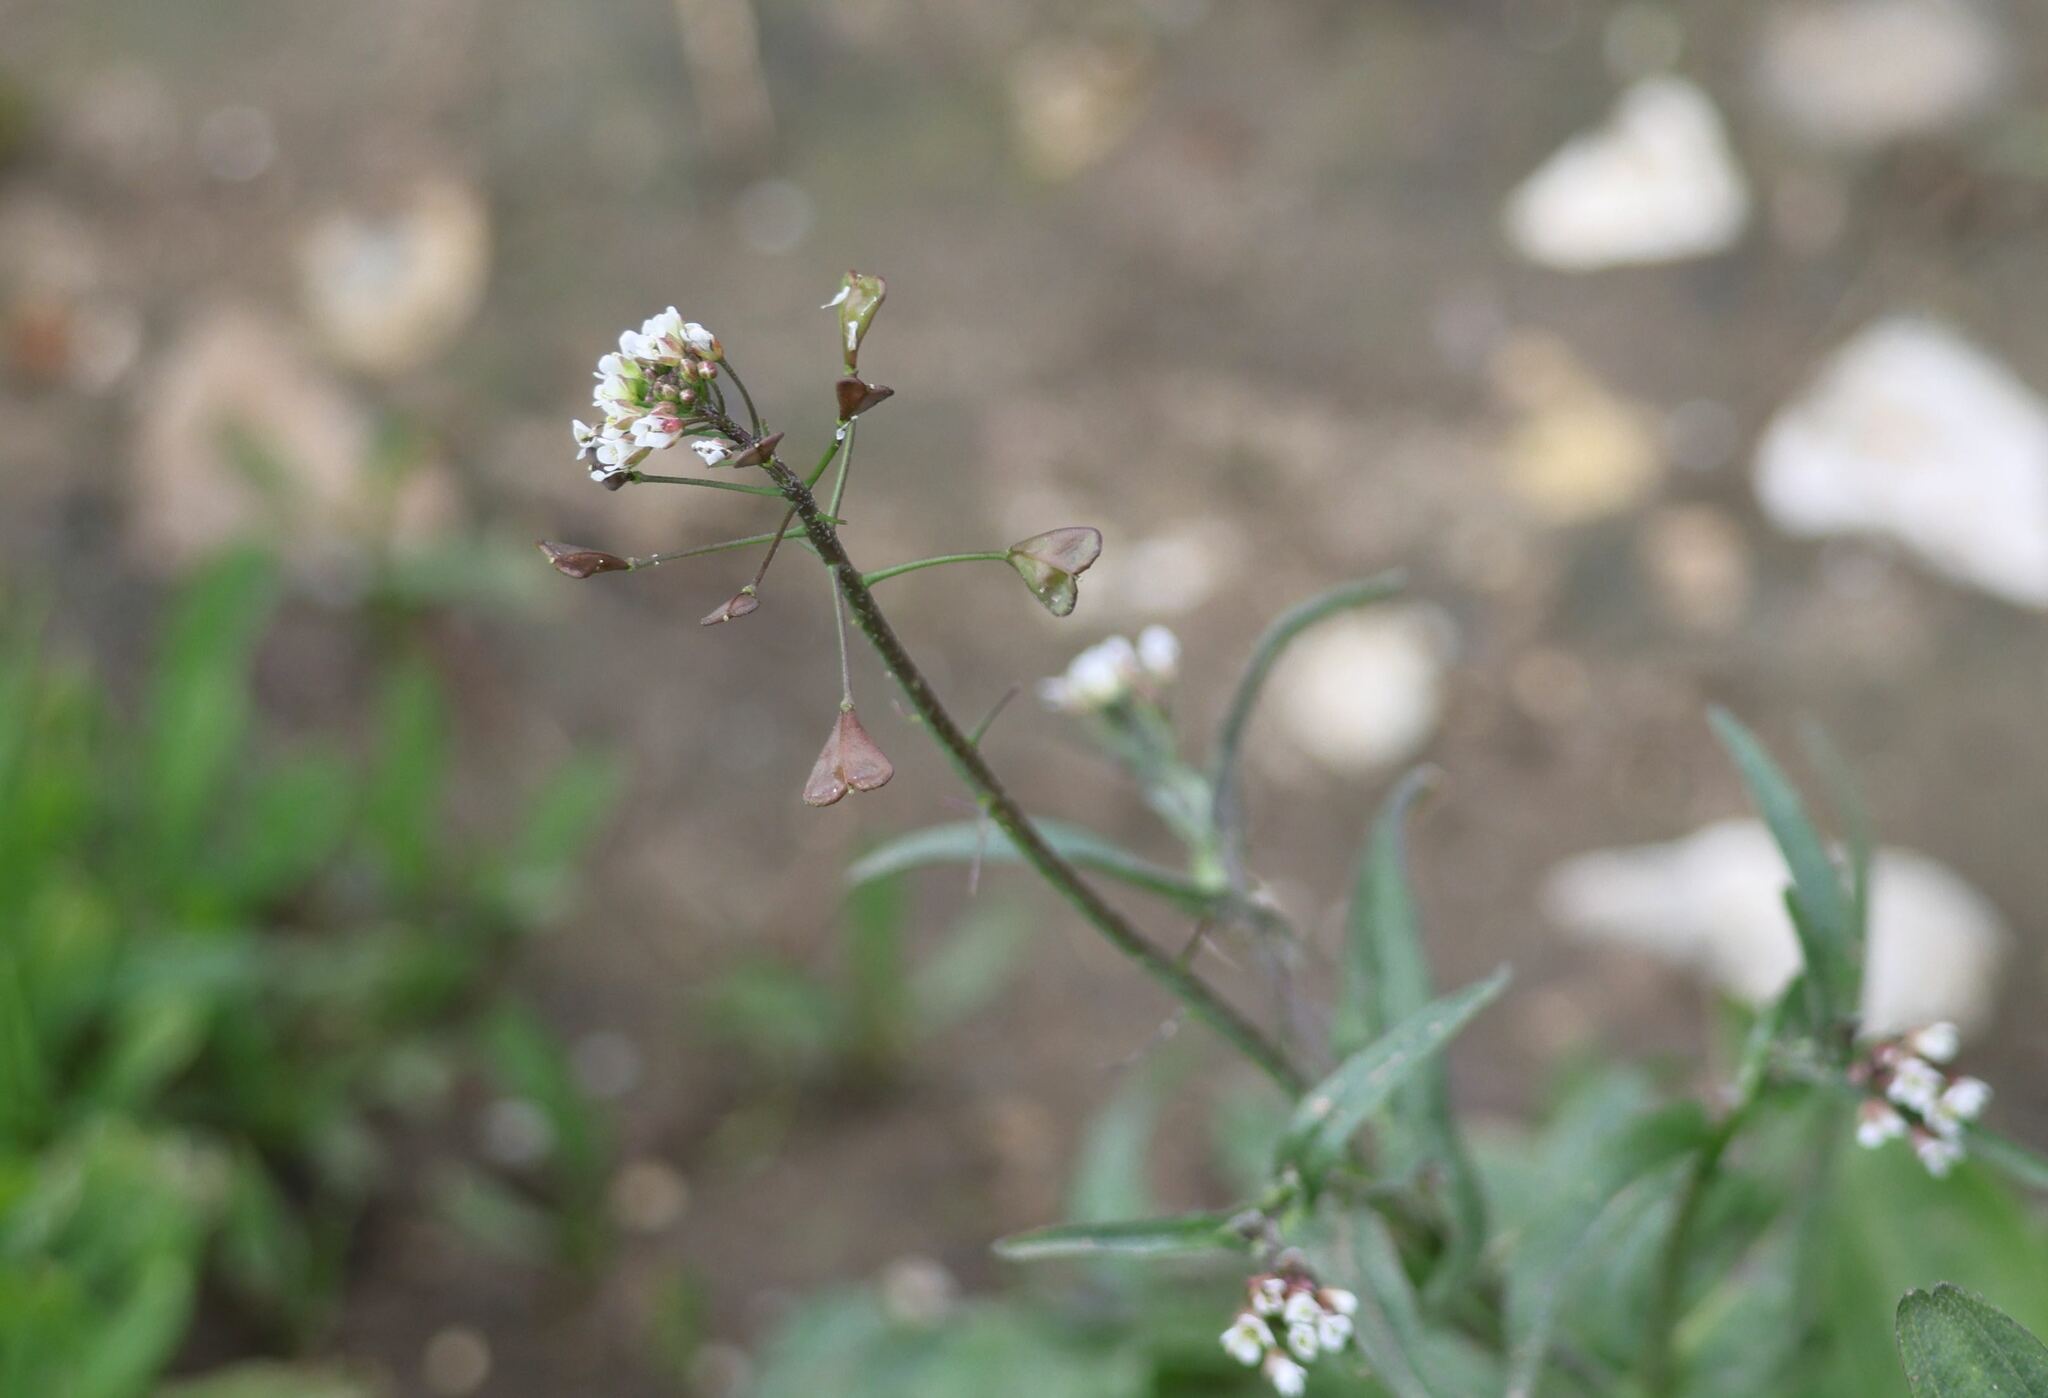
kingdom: Plantae
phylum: Tracheophyta
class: Magnoliopsida
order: Brassicales
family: Brassicaceae
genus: Capsella
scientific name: Capsella bursa-pastoris
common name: Shepherd's purse
